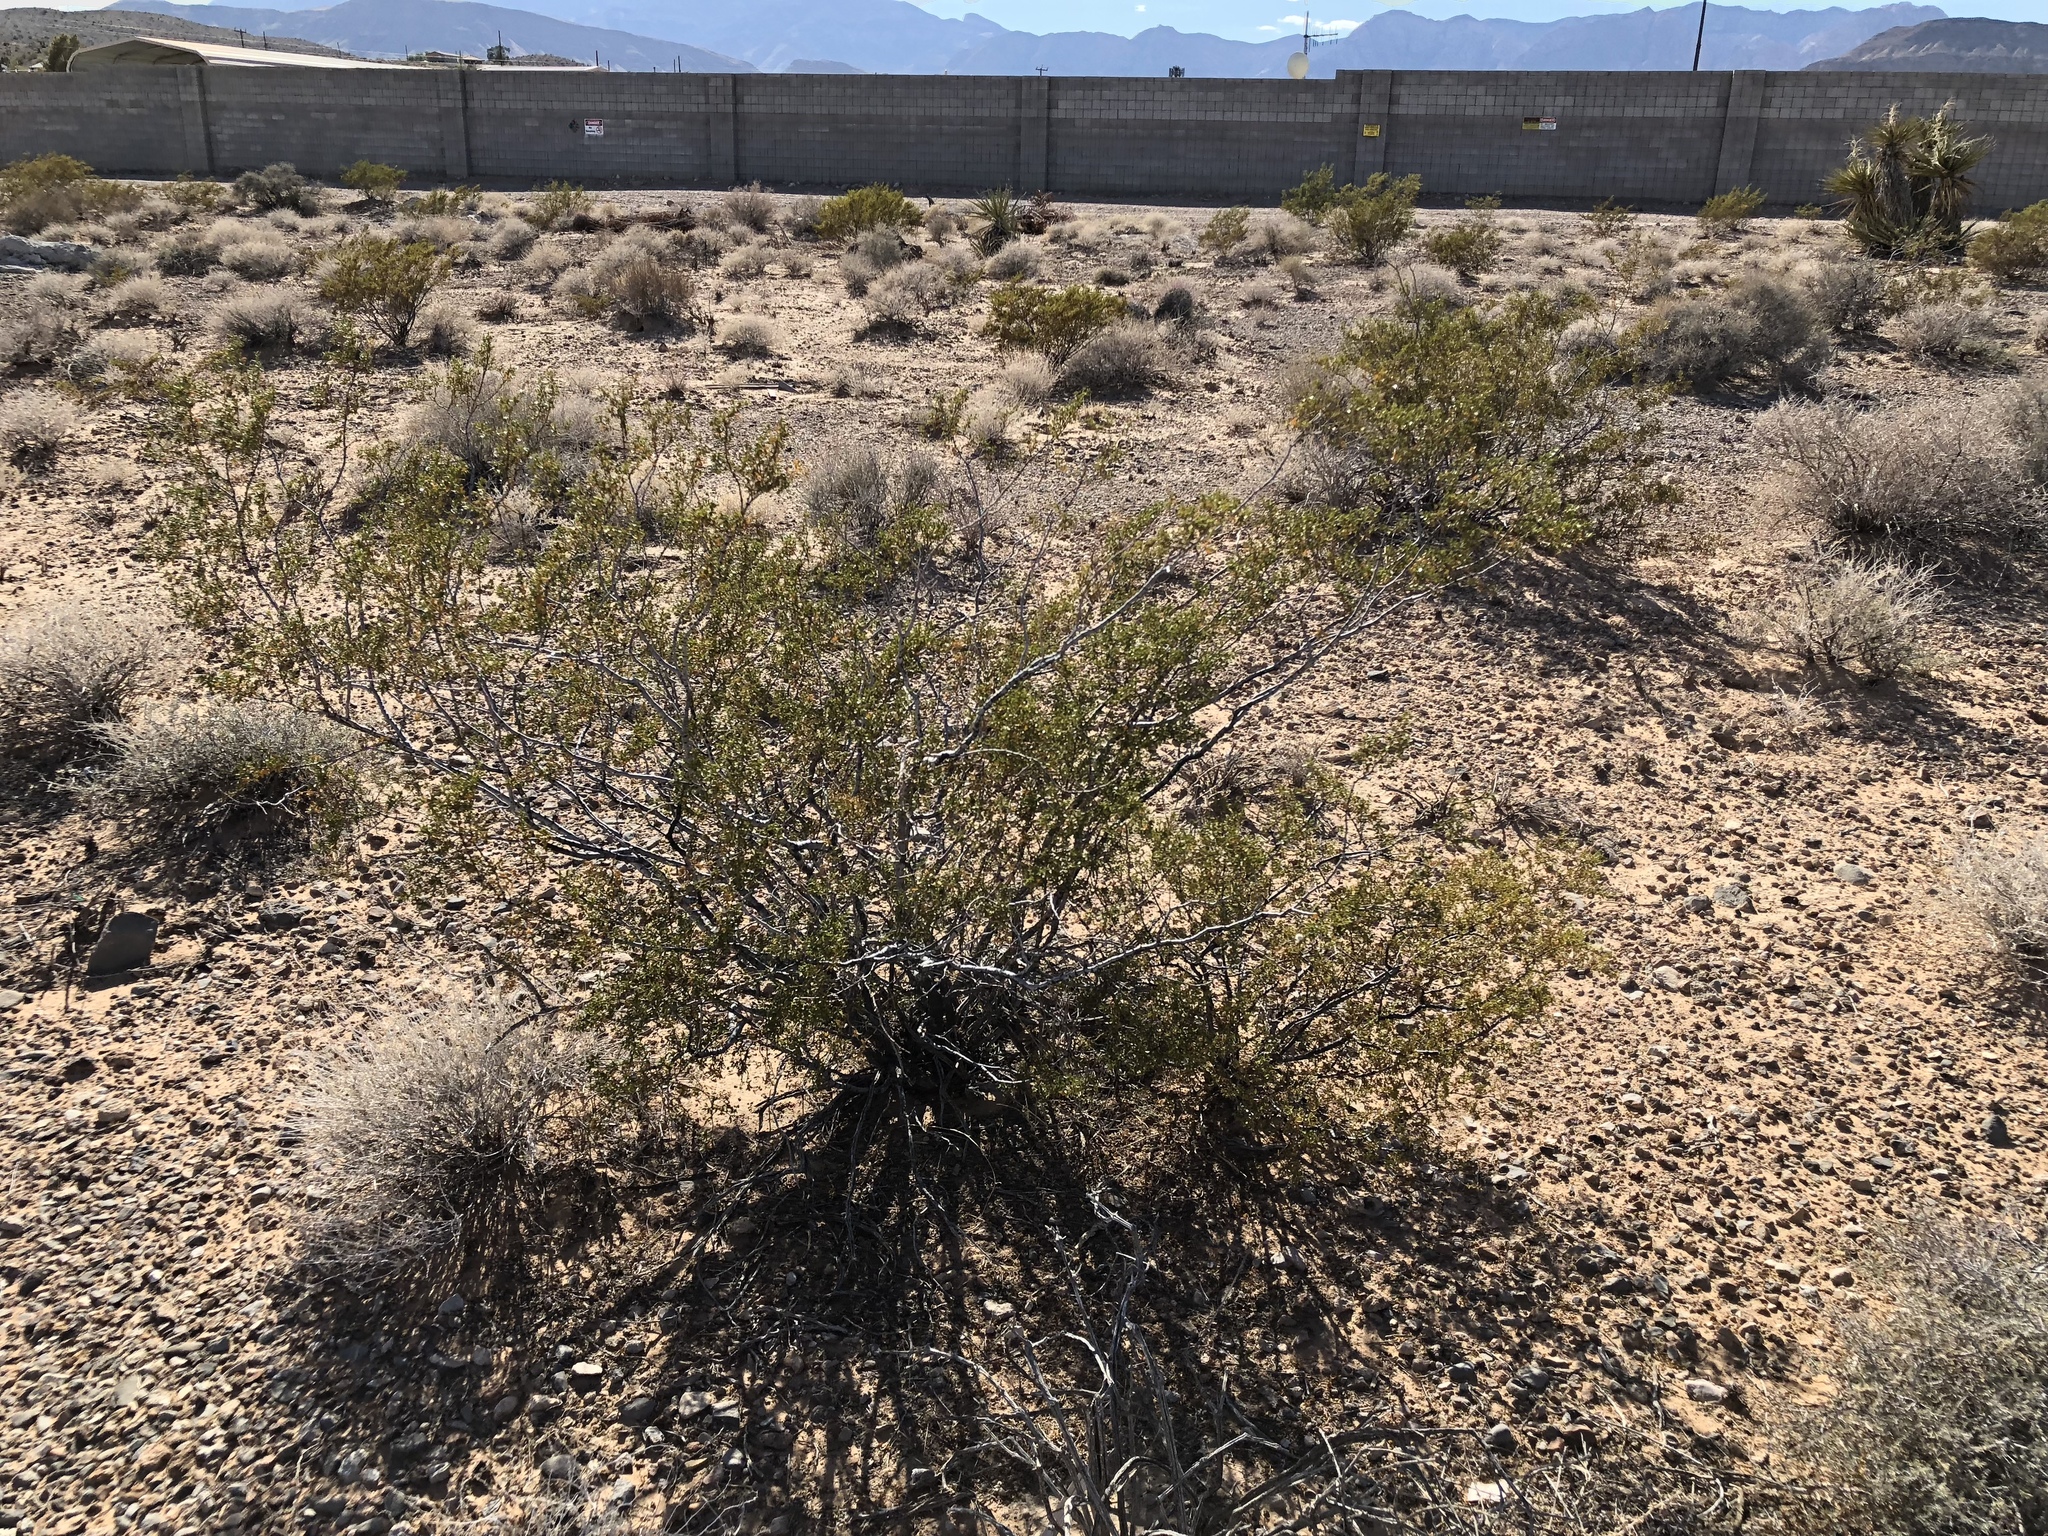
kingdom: Plantae
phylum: Tracheophyta
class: Magnoliopsida
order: Zygophyllales
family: Zygophyllaceae
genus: Larrea
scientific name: Larrea tridentata
